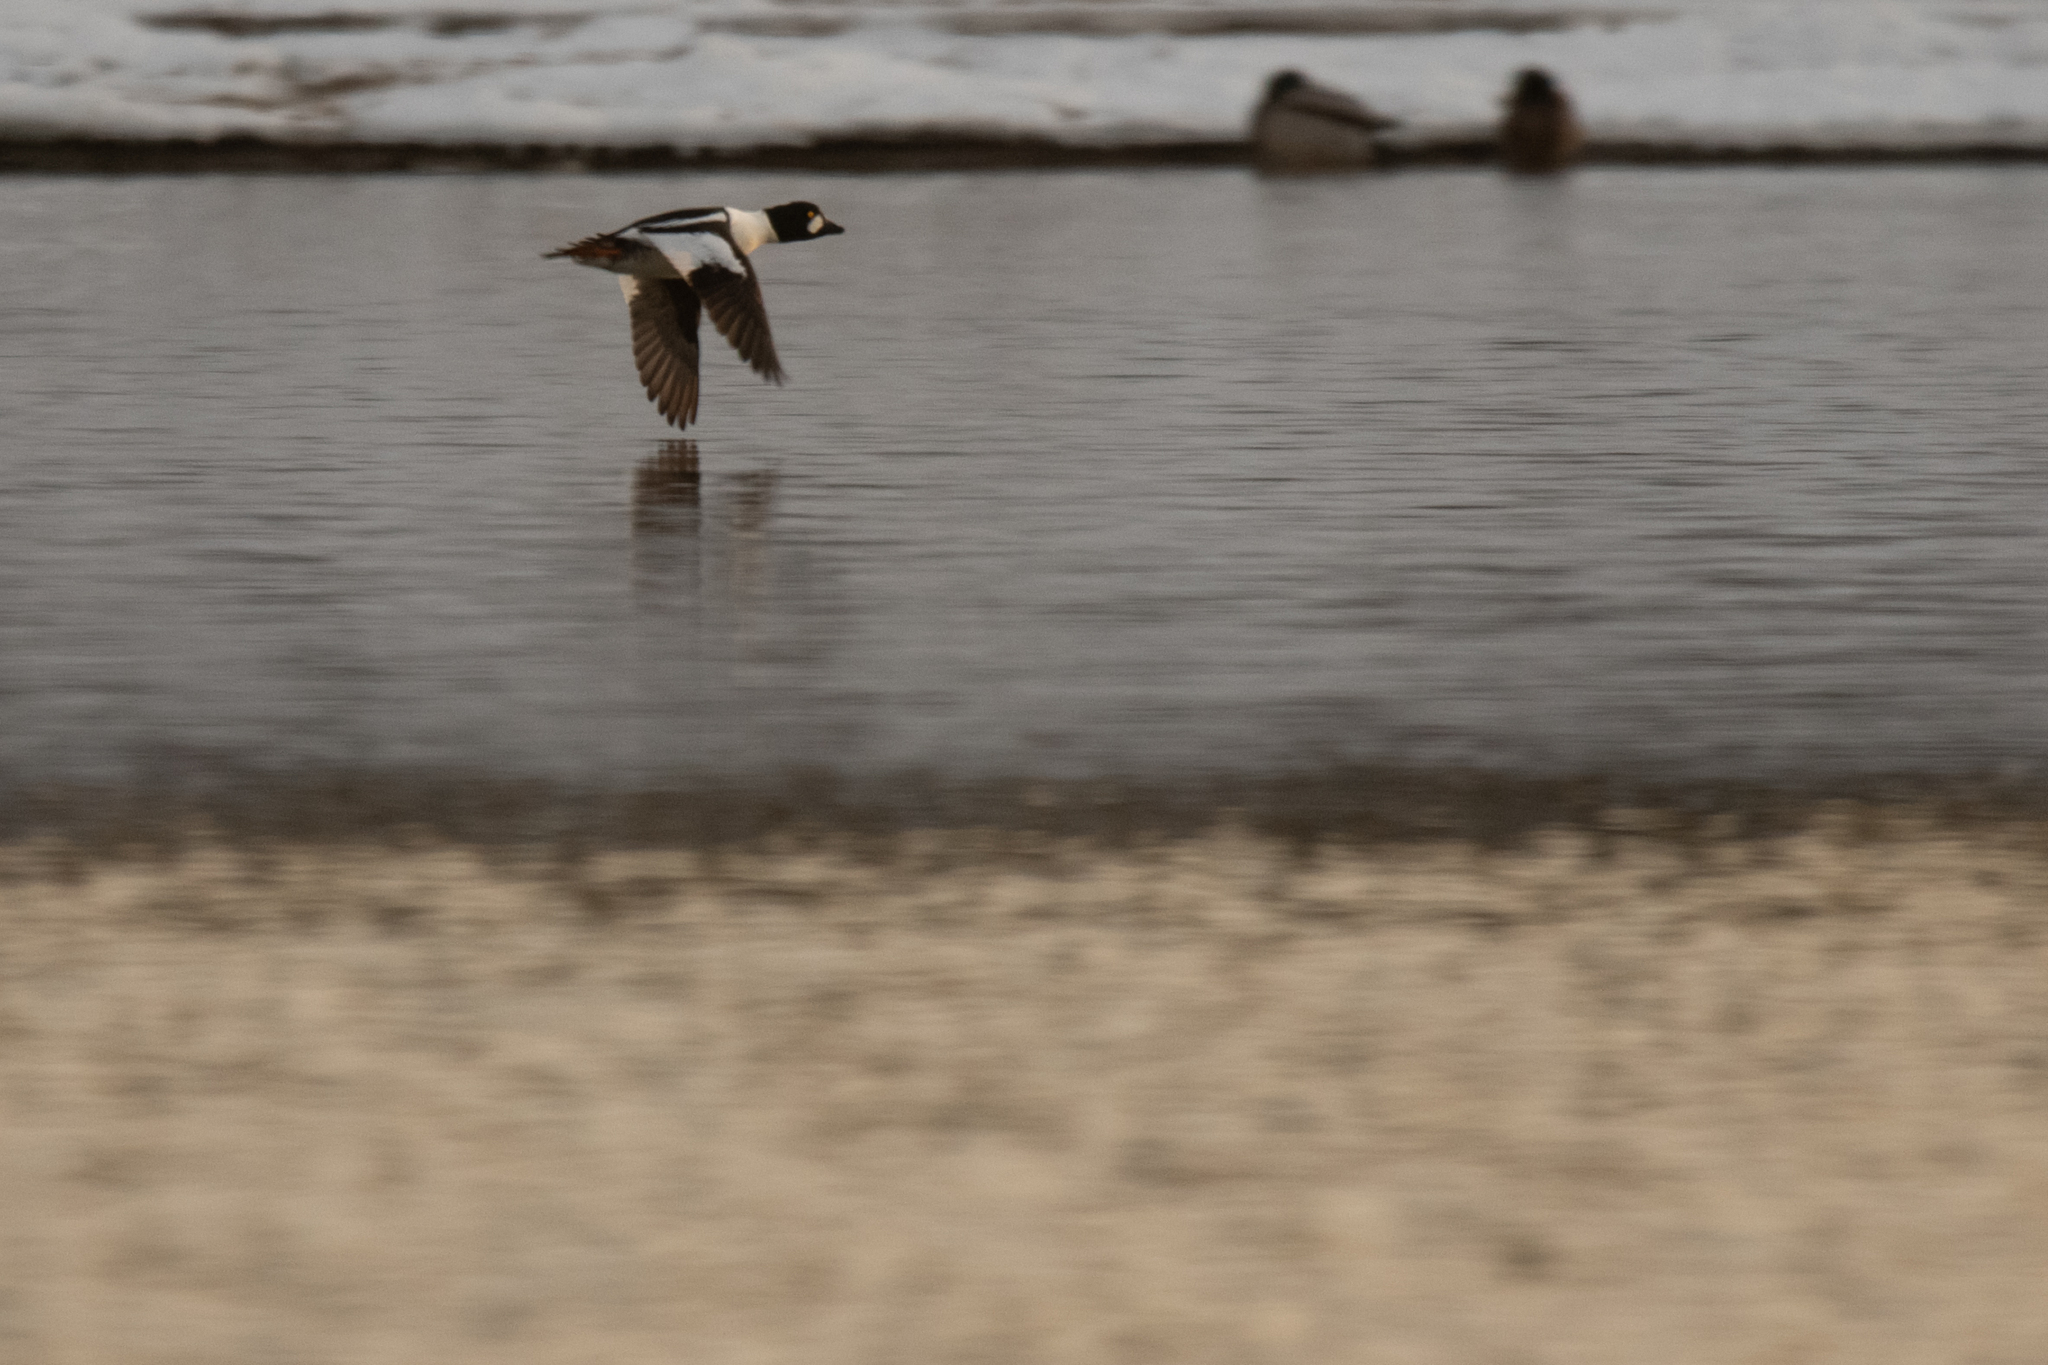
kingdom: Animalia
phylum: Chordata
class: Aves
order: Anseriformes
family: Anatidae
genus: Bucephala
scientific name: Bucephala clangula
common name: Common goldeneye
